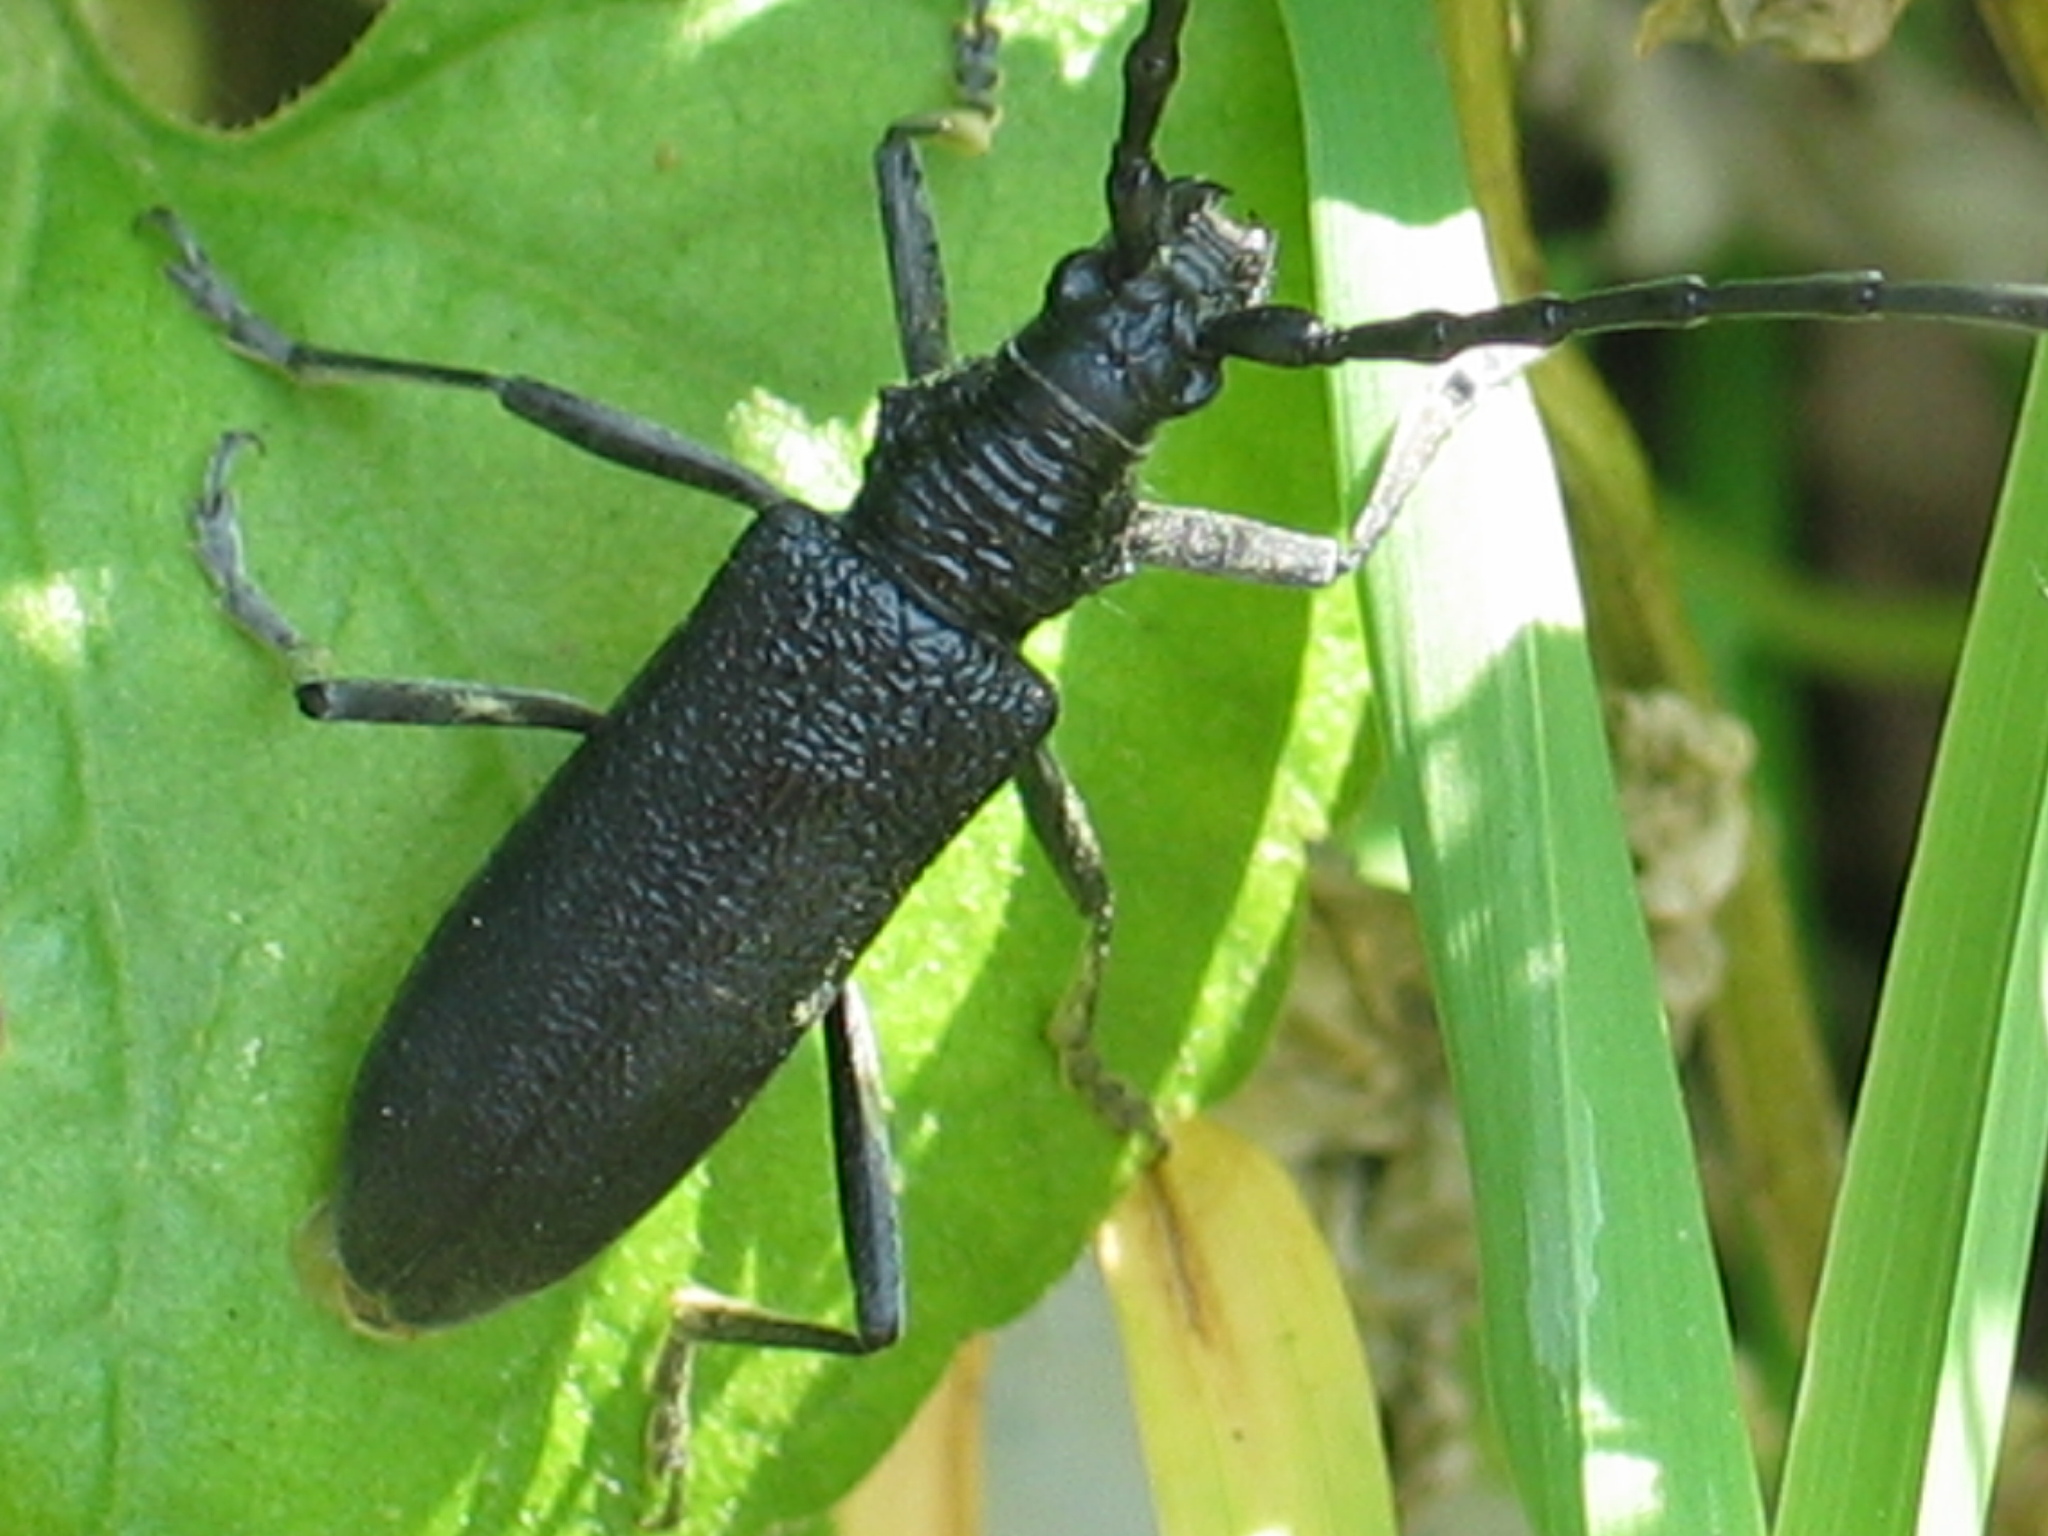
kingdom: Animalia
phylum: Arthropoda
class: Insecta
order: Coleoptera
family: Cerambycidae
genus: Cerambyx
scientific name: Cerambyx scopolii
